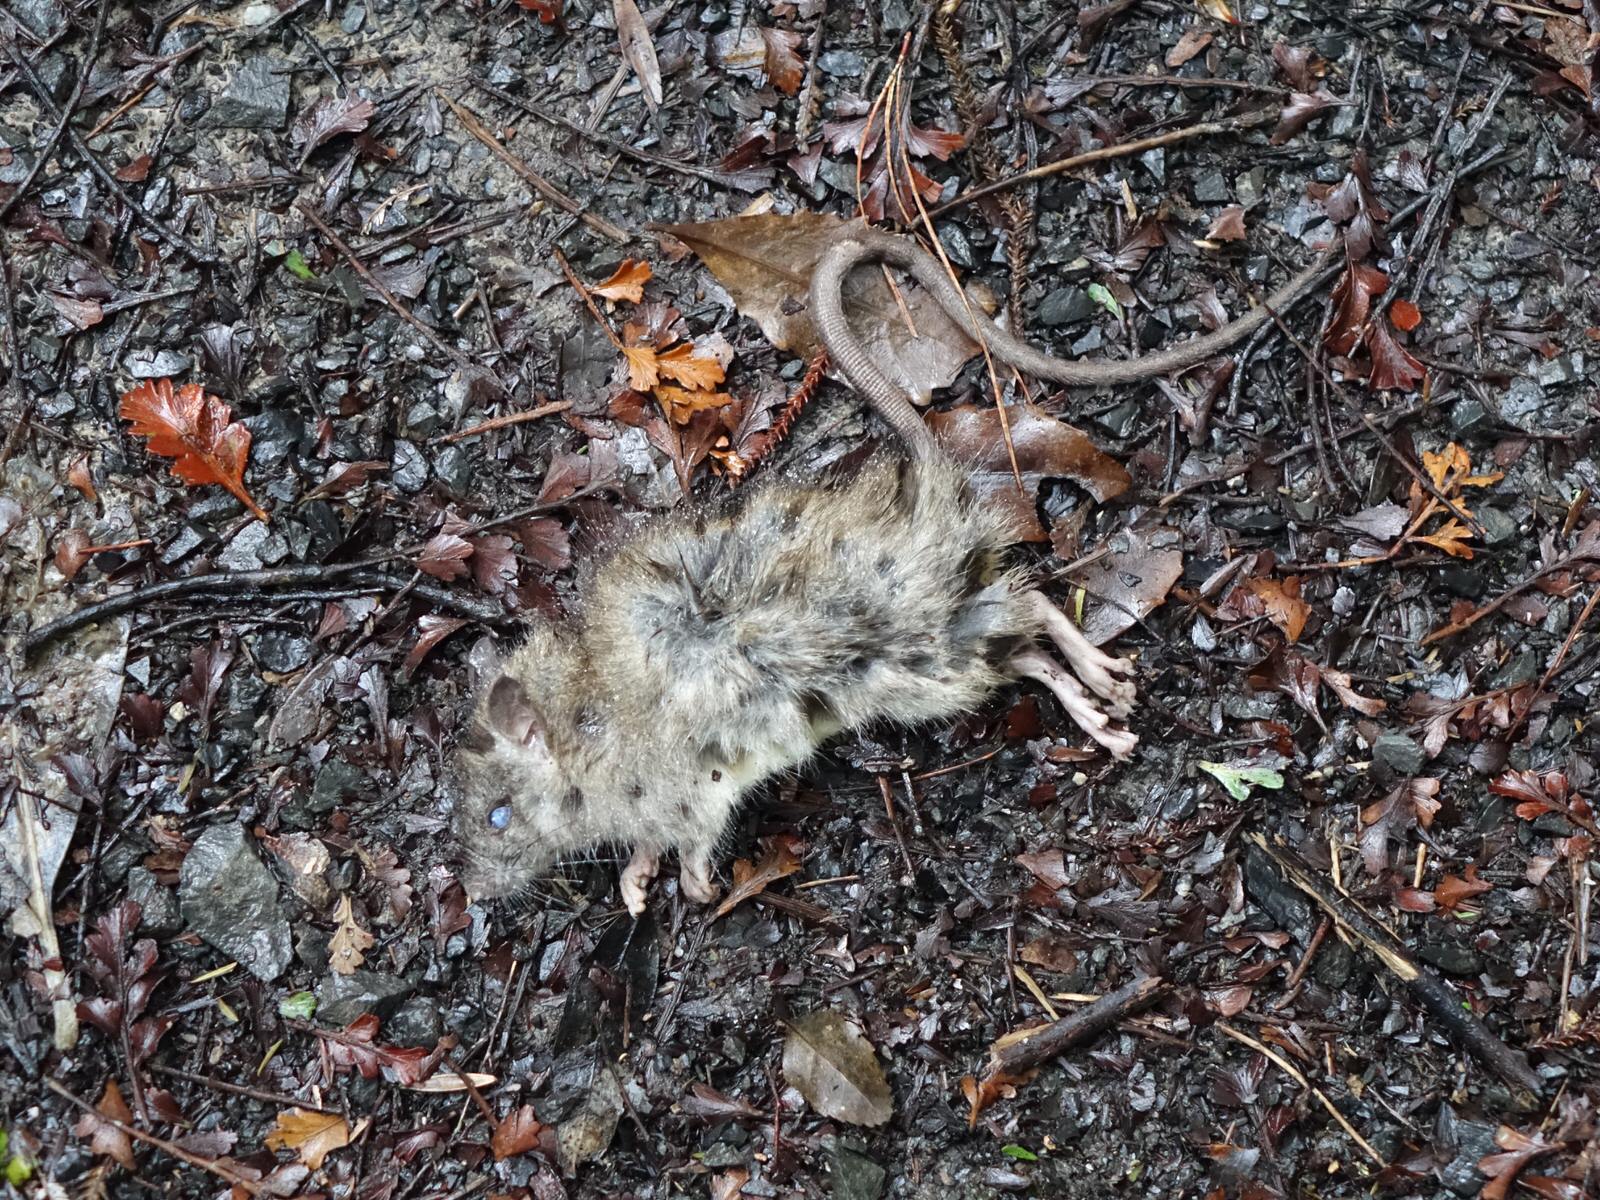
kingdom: Animalia
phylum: Chordata
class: Mammalia
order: Rodentia
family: Muridae
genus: Rattus
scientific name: Rattus rattus
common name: Black rat
